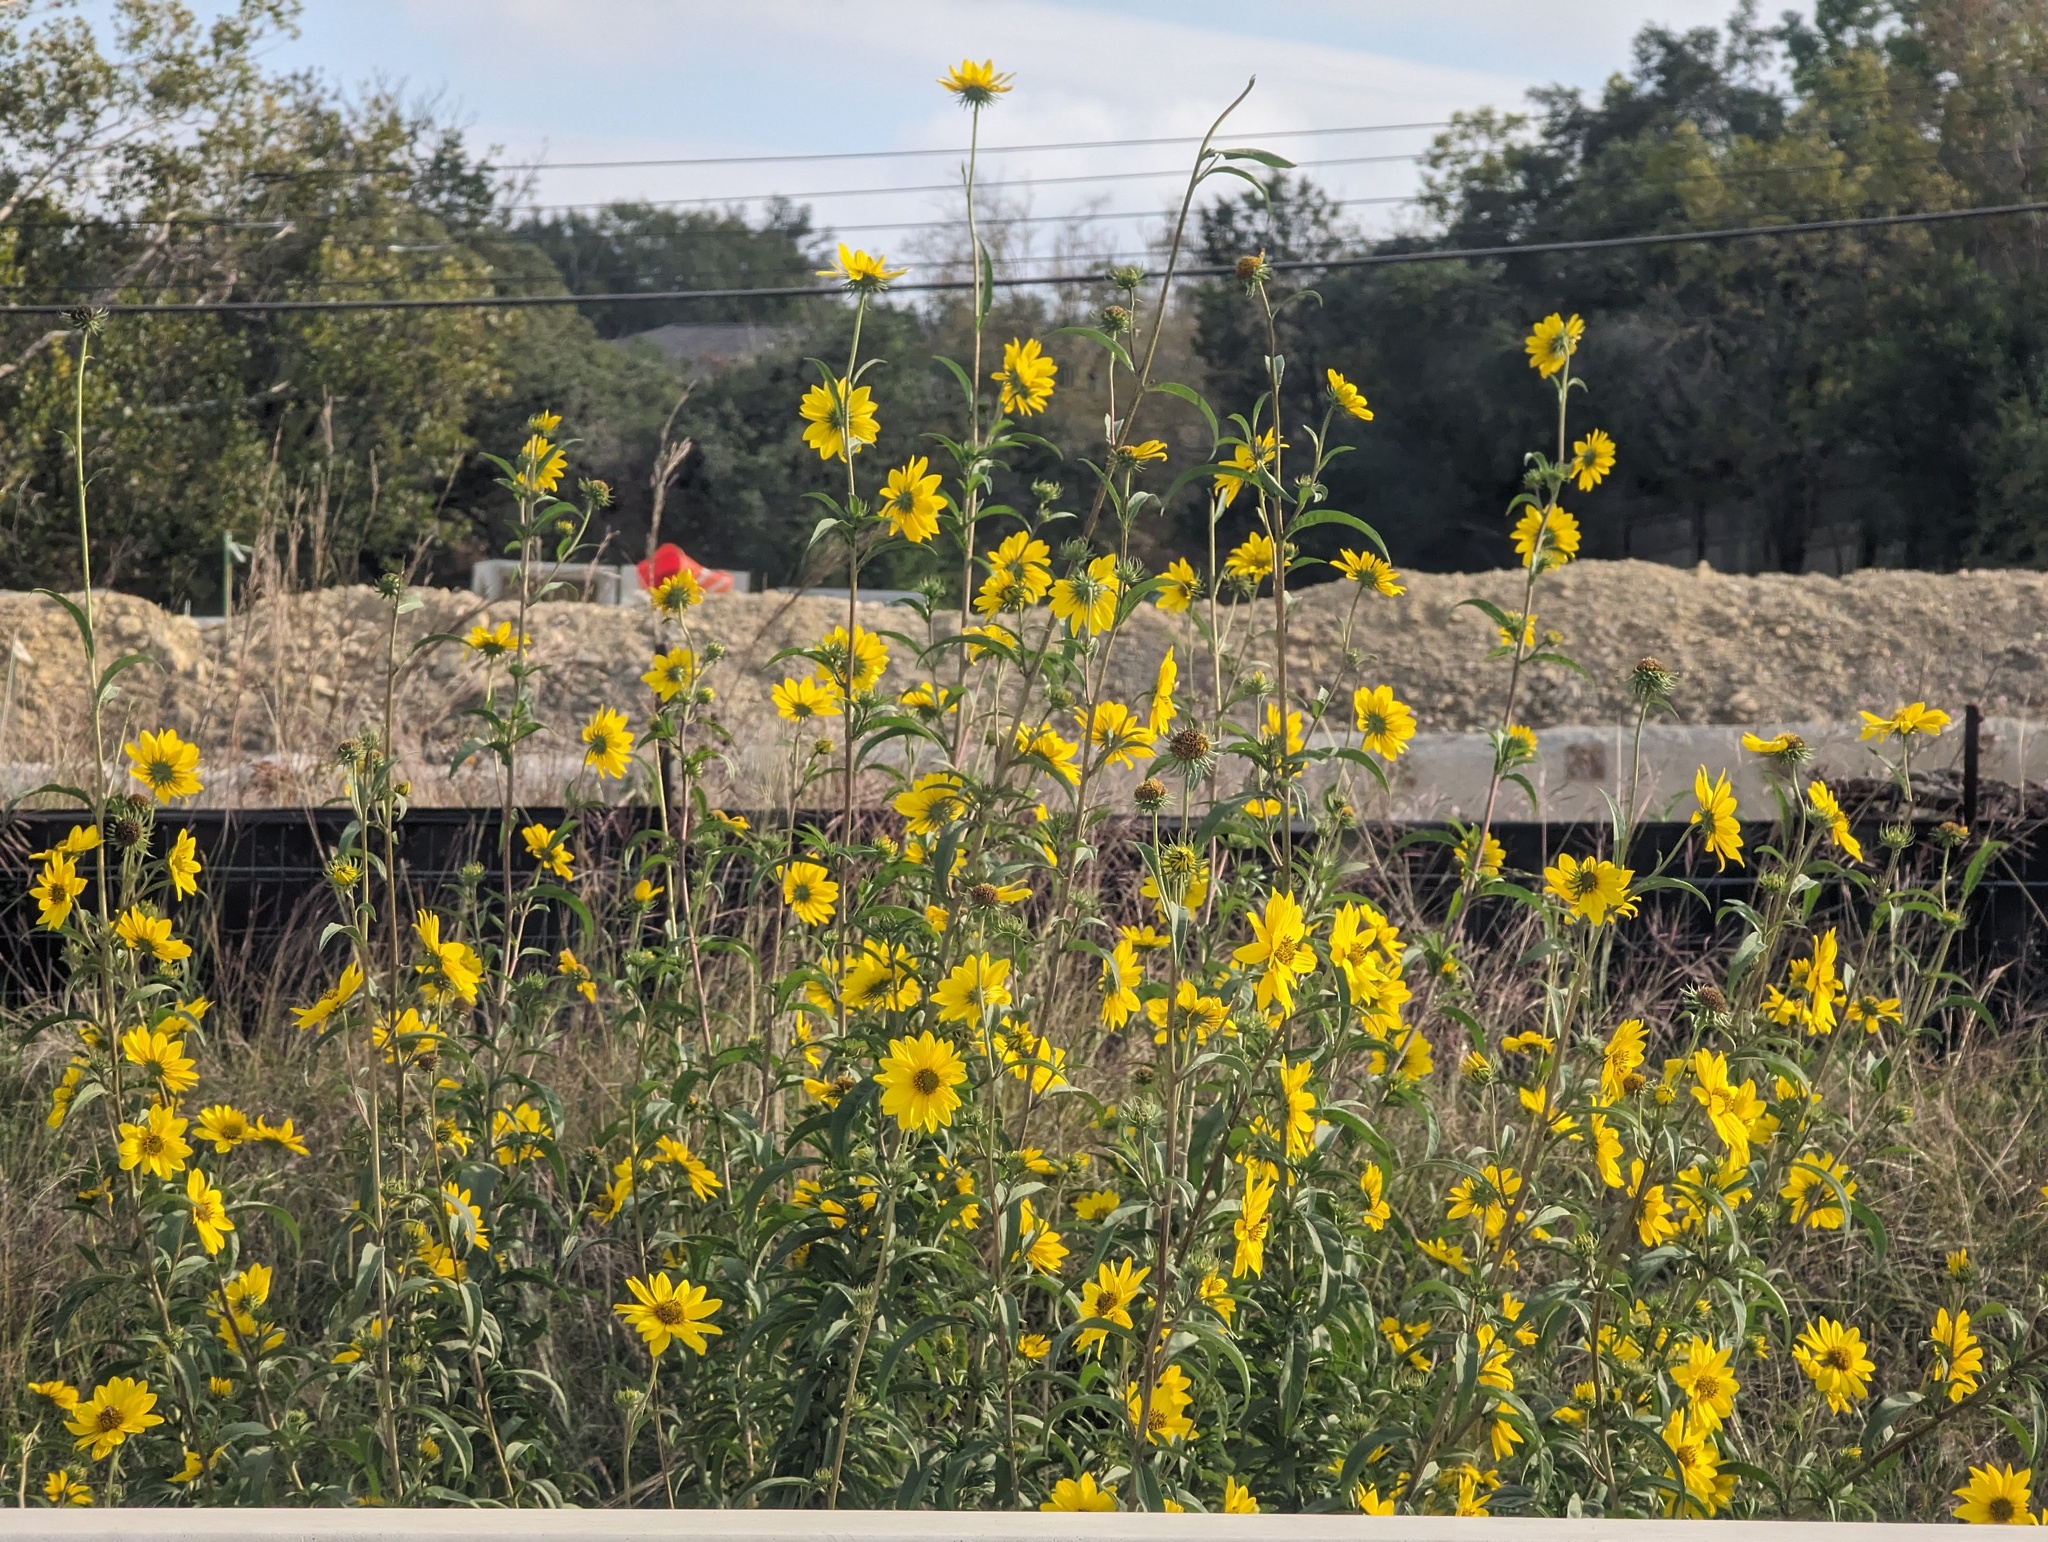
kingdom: Plantae
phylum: Tracheophyta
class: Magnoliopsida
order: Asterales
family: Asteraceae
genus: Helianthus
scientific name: Helianthus maximiliani
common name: Maximilian's sunflower
